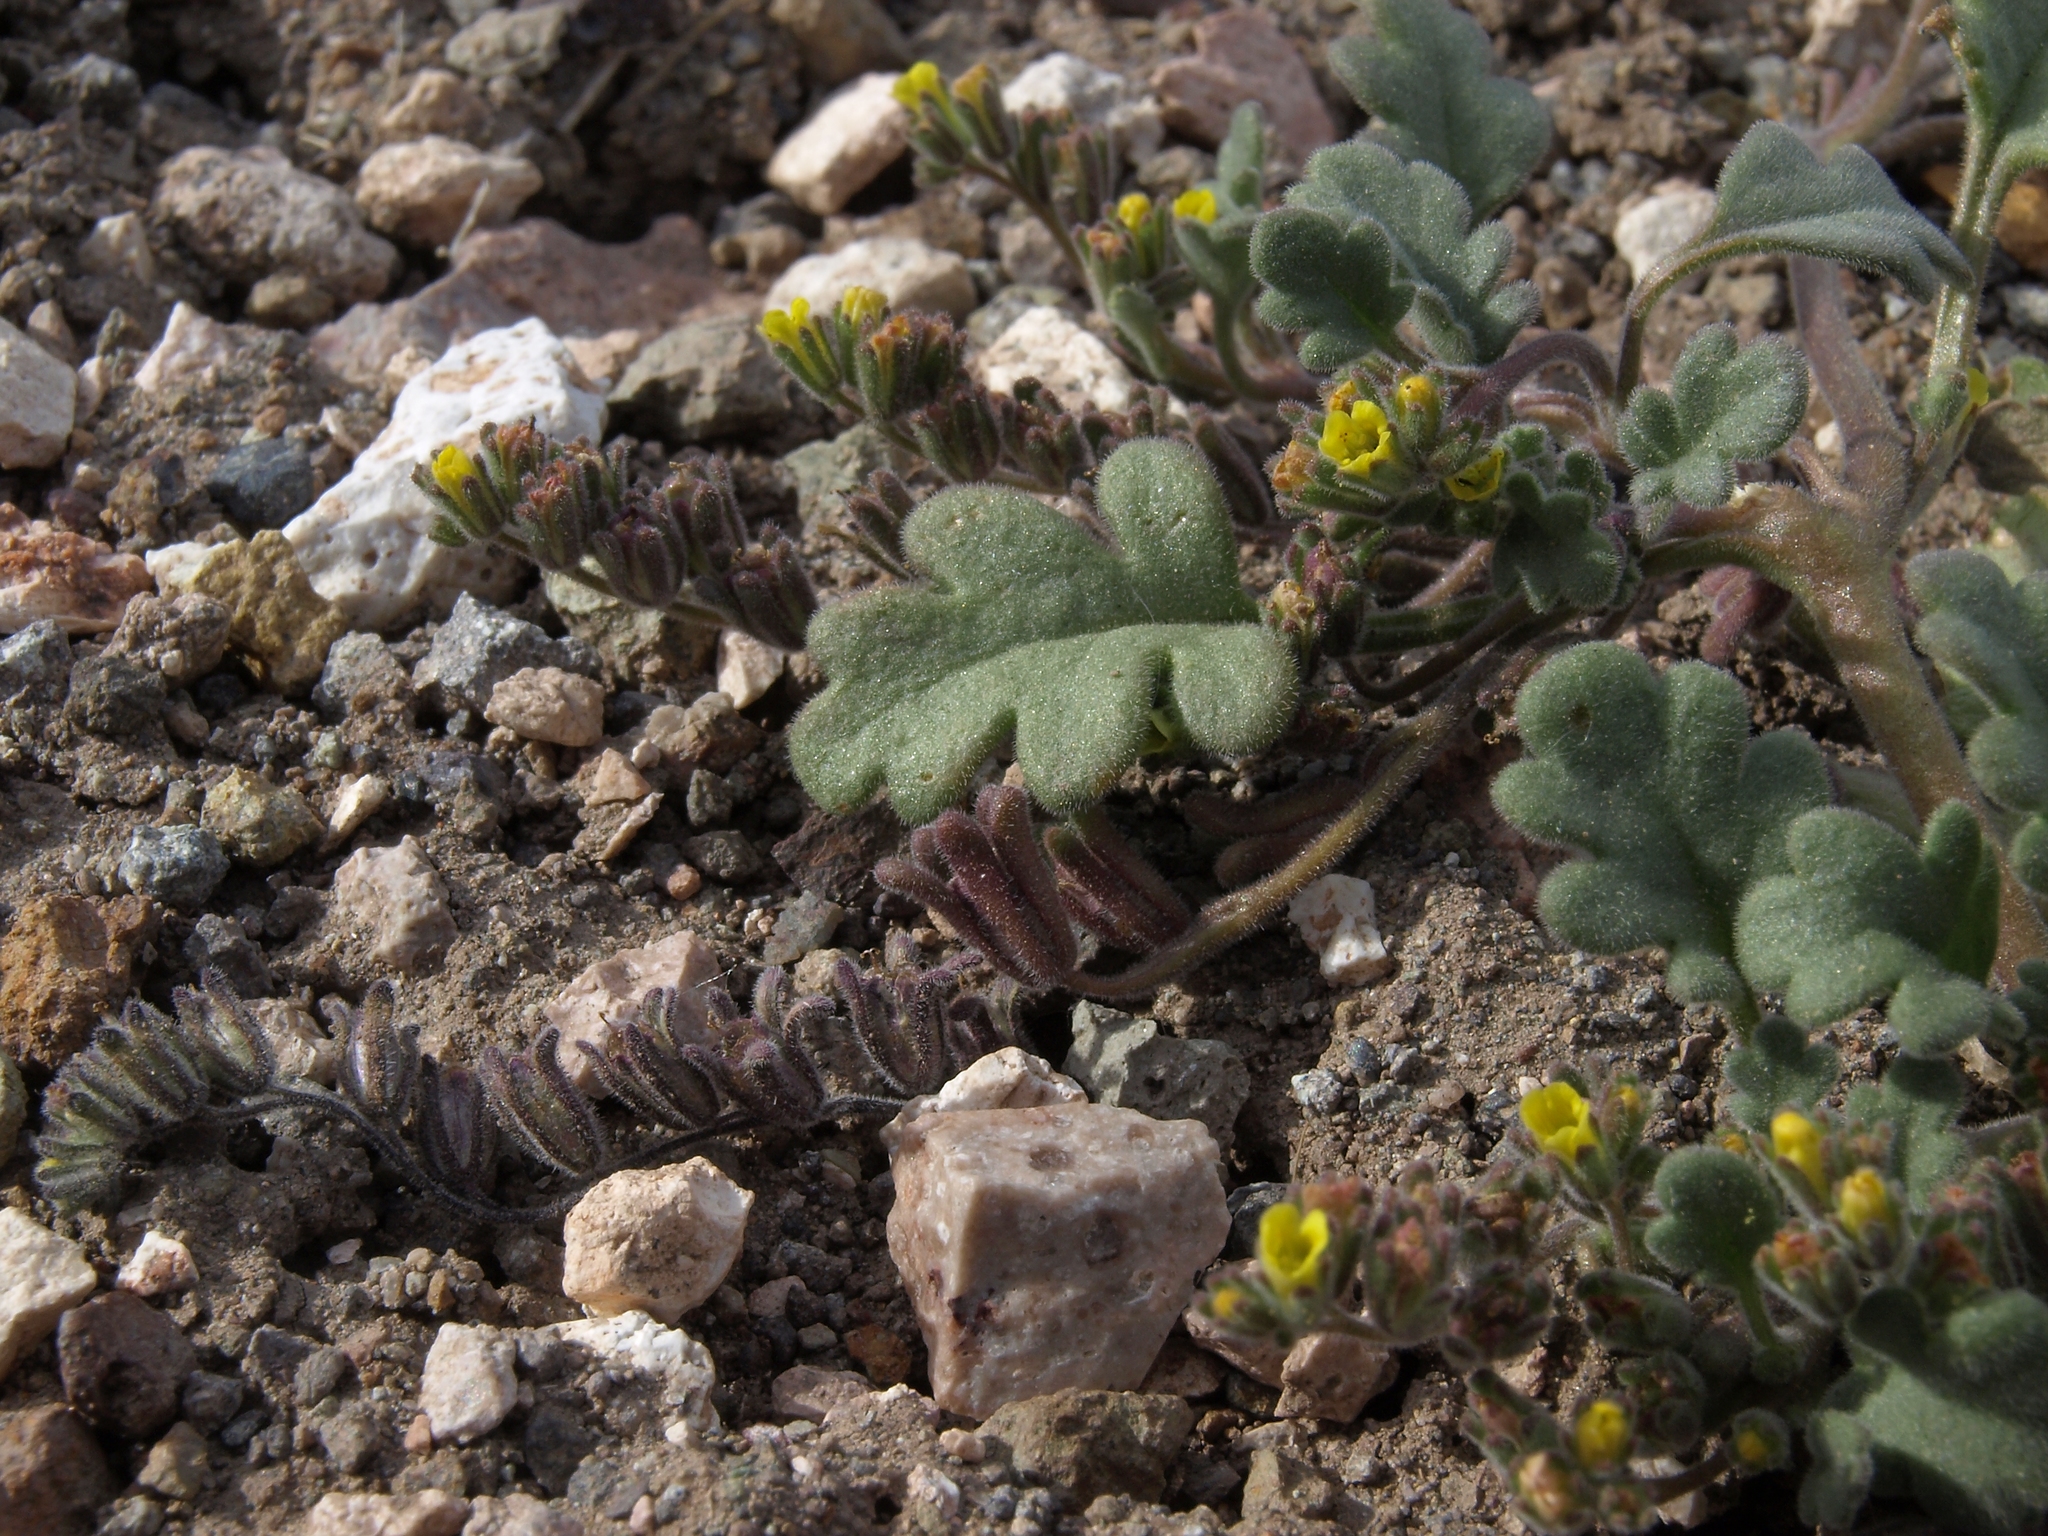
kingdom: Plantae
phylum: Tracheophyta
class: Magnoliopsida
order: Boraginales
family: Hydrophyllaceae
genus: Phacelia
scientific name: Phacelia monoensis
